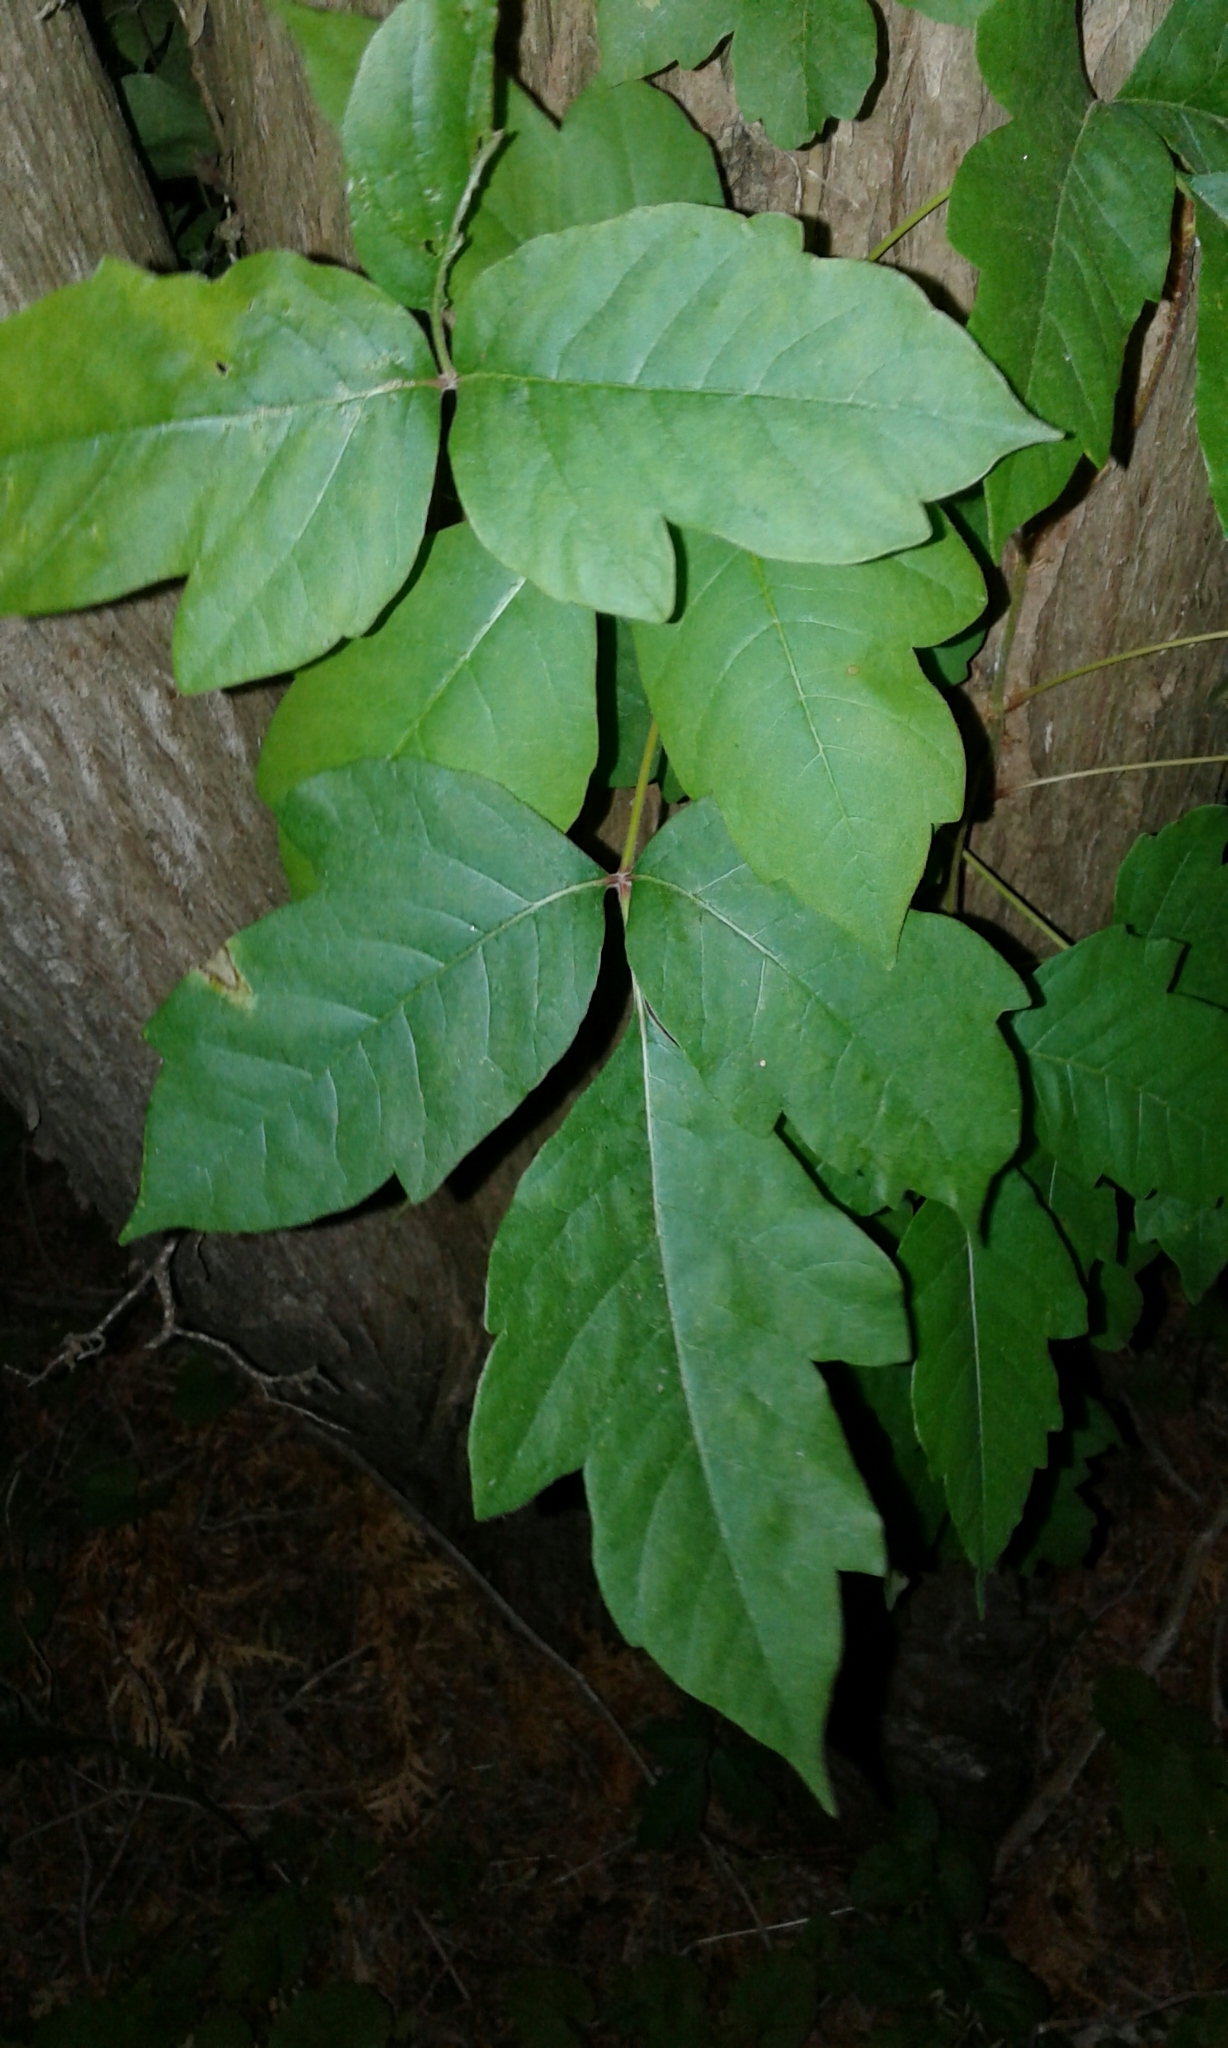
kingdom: Plantae
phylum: Tracheophyta
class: Magnoliopsida
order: Sapindales
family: Anacardiaceae
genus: Toxicodendron
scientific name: Toxicodendron radicans
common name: Poison ivy
